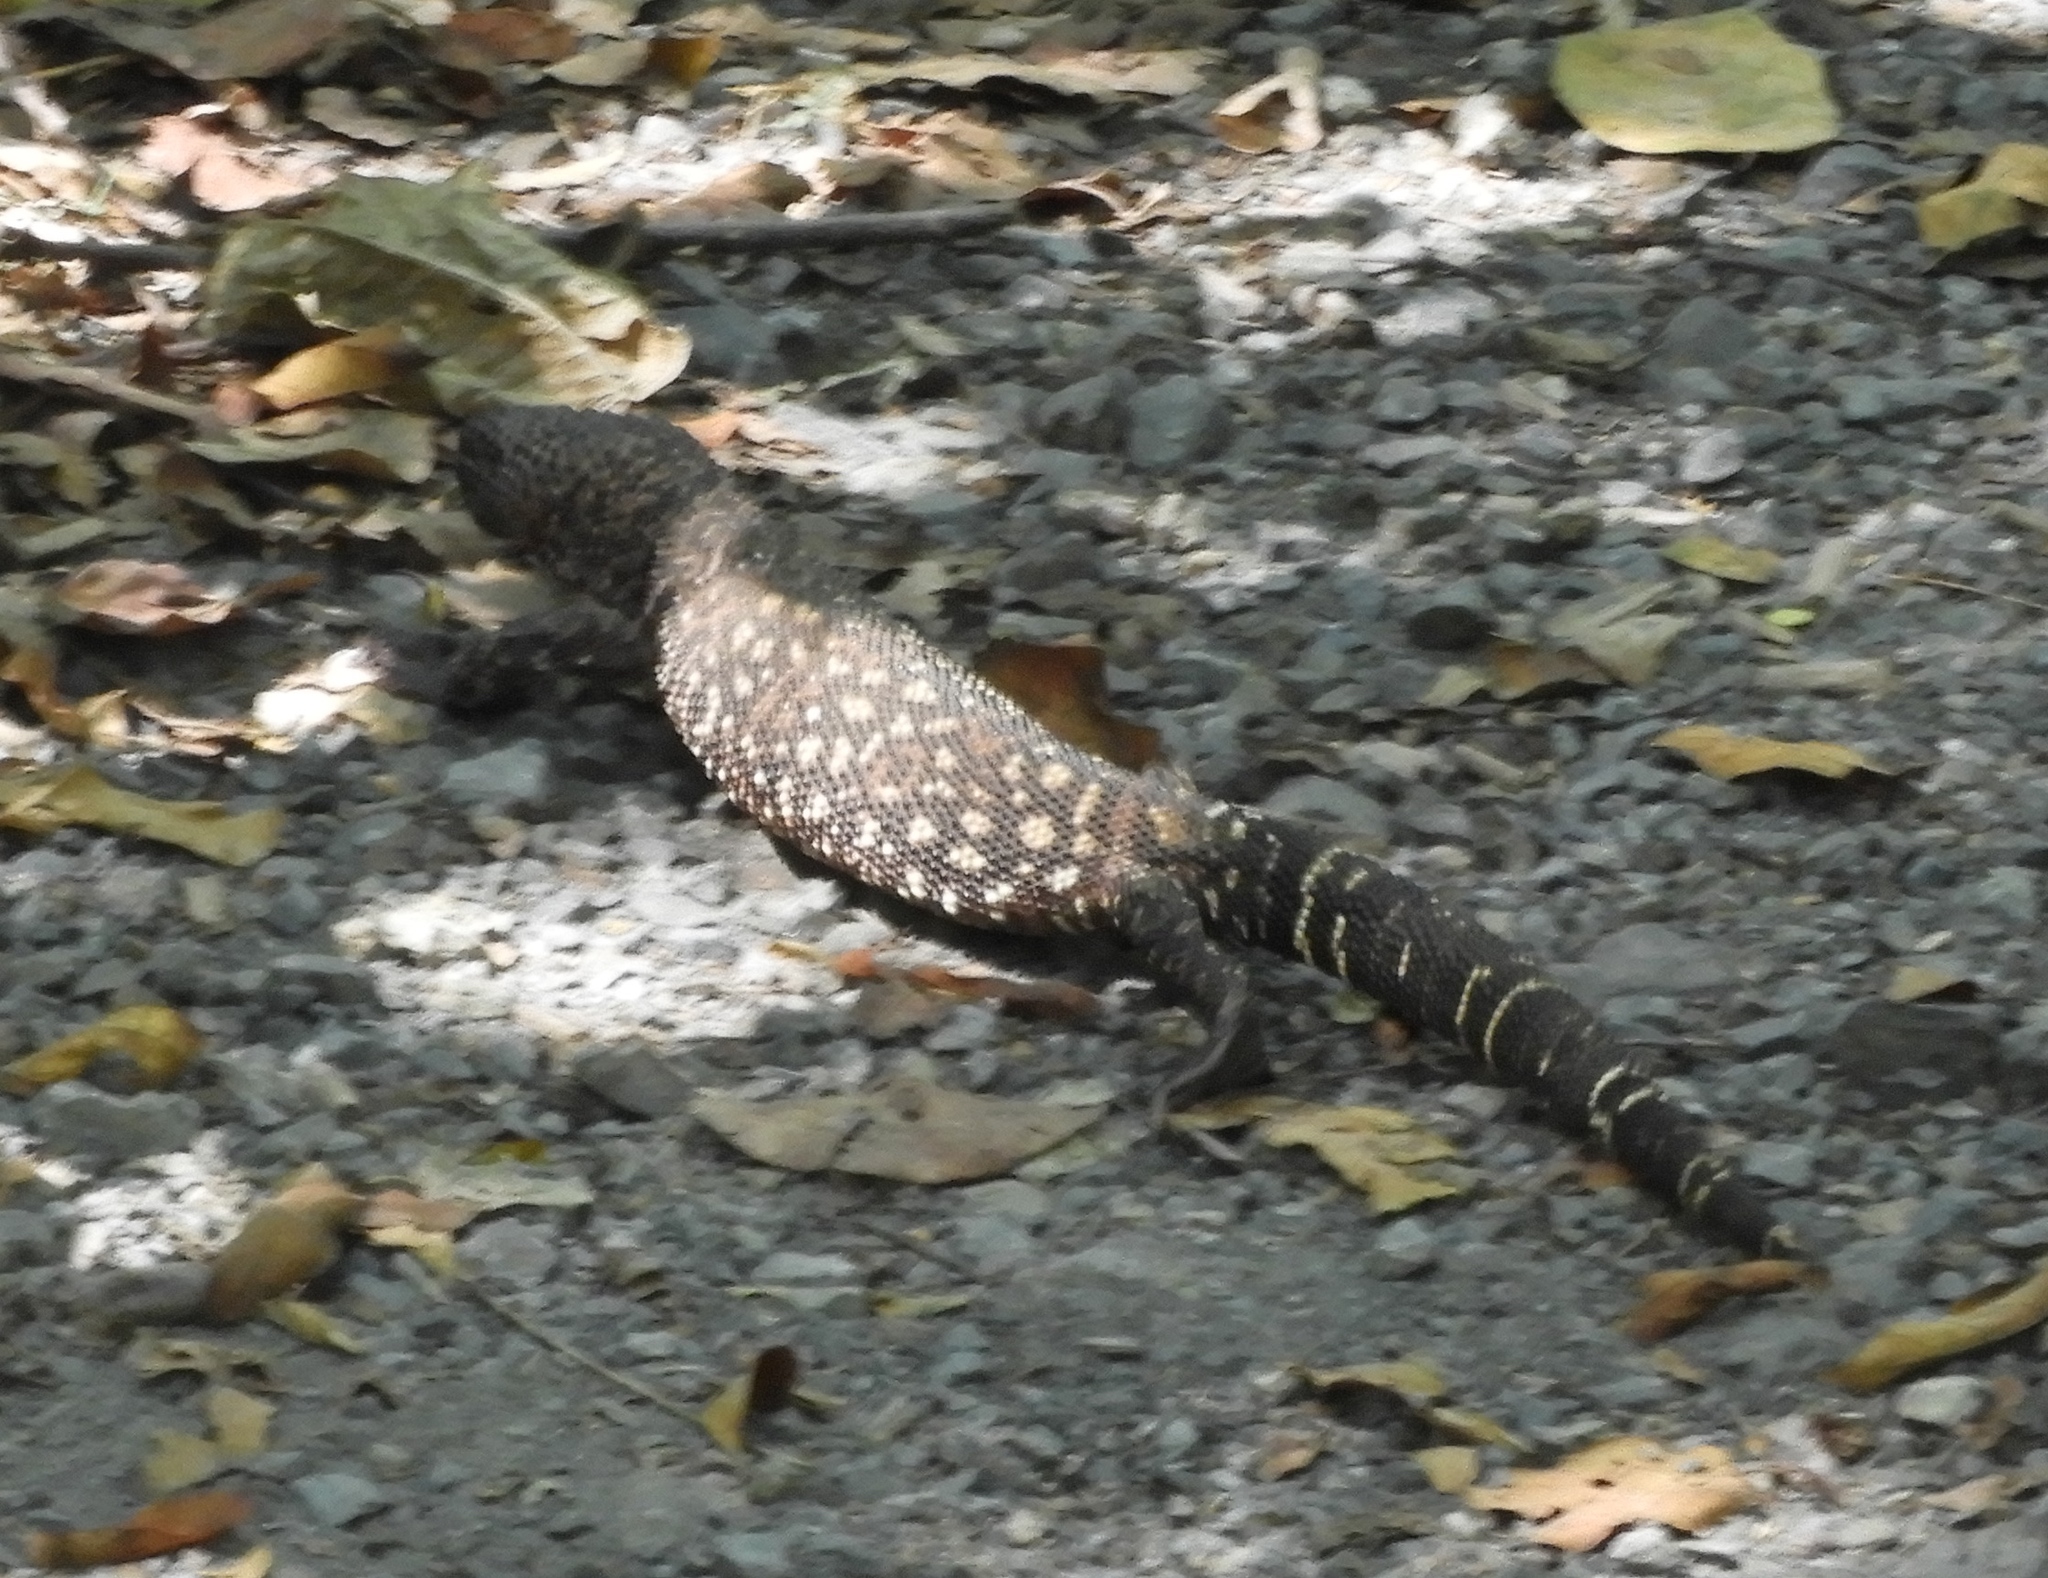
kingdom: Animalia
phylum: Chordata
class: Squamata
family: Helodermatidae
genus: Heloderma
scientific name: Heloderma horridum
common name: Mexican beaded lizard
